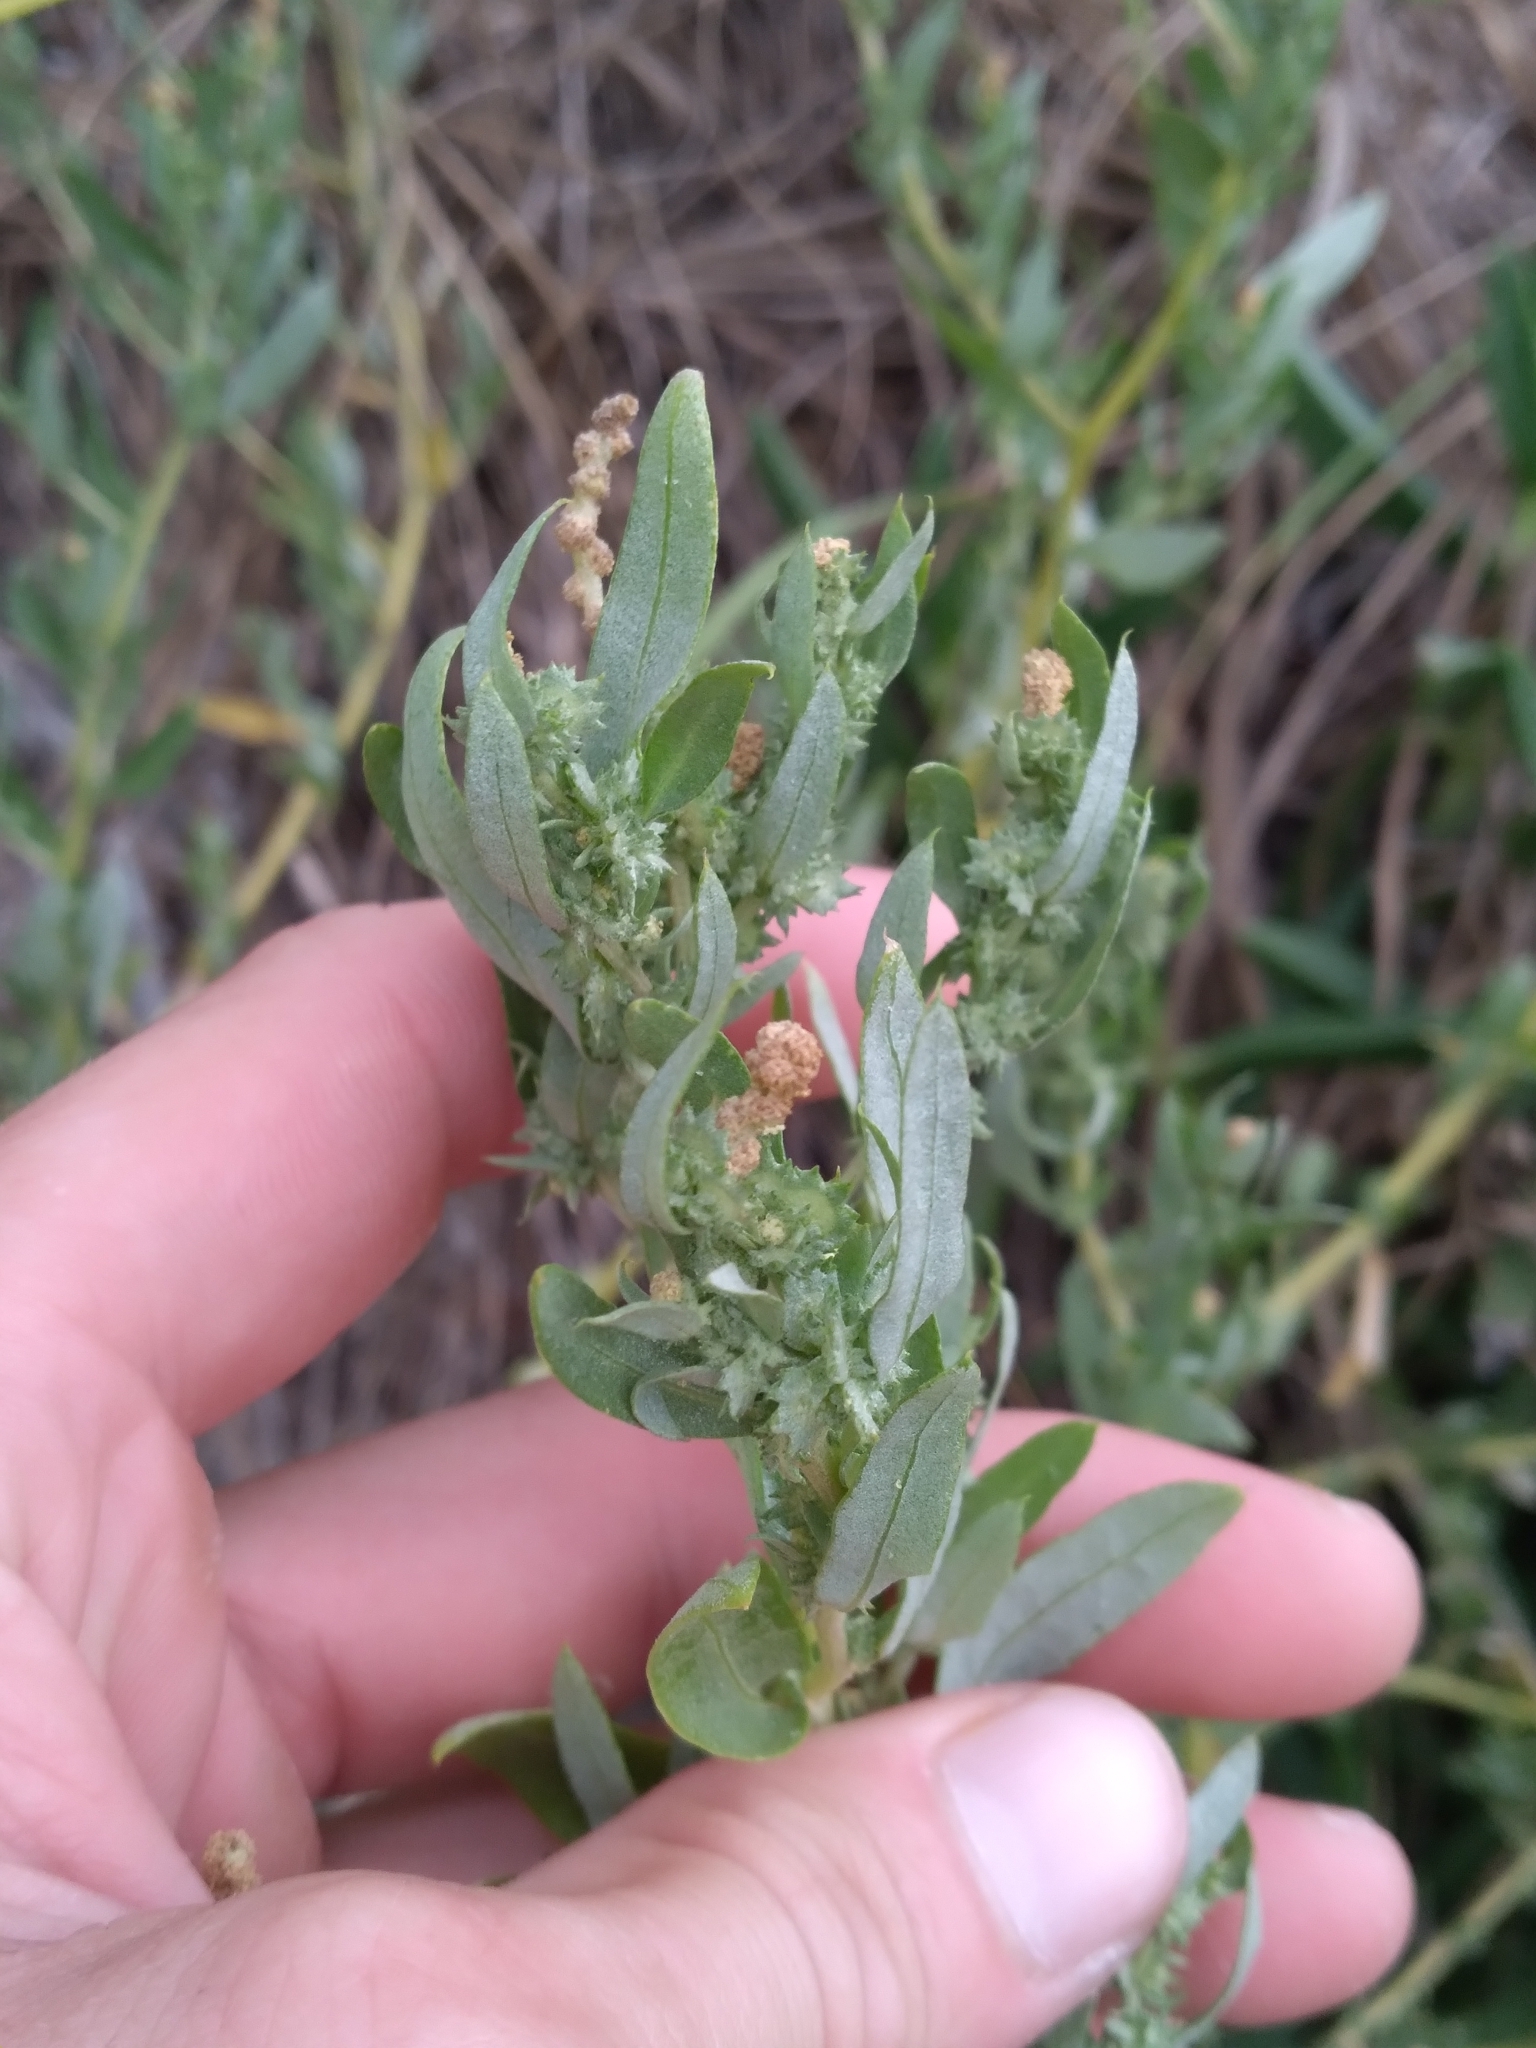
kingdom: Plantae
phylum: Tracheophyta
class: Magnoliopsida
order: Caryophyllales
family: Amaranthaceae
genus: Atriplex
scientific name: Atriplex cristata
